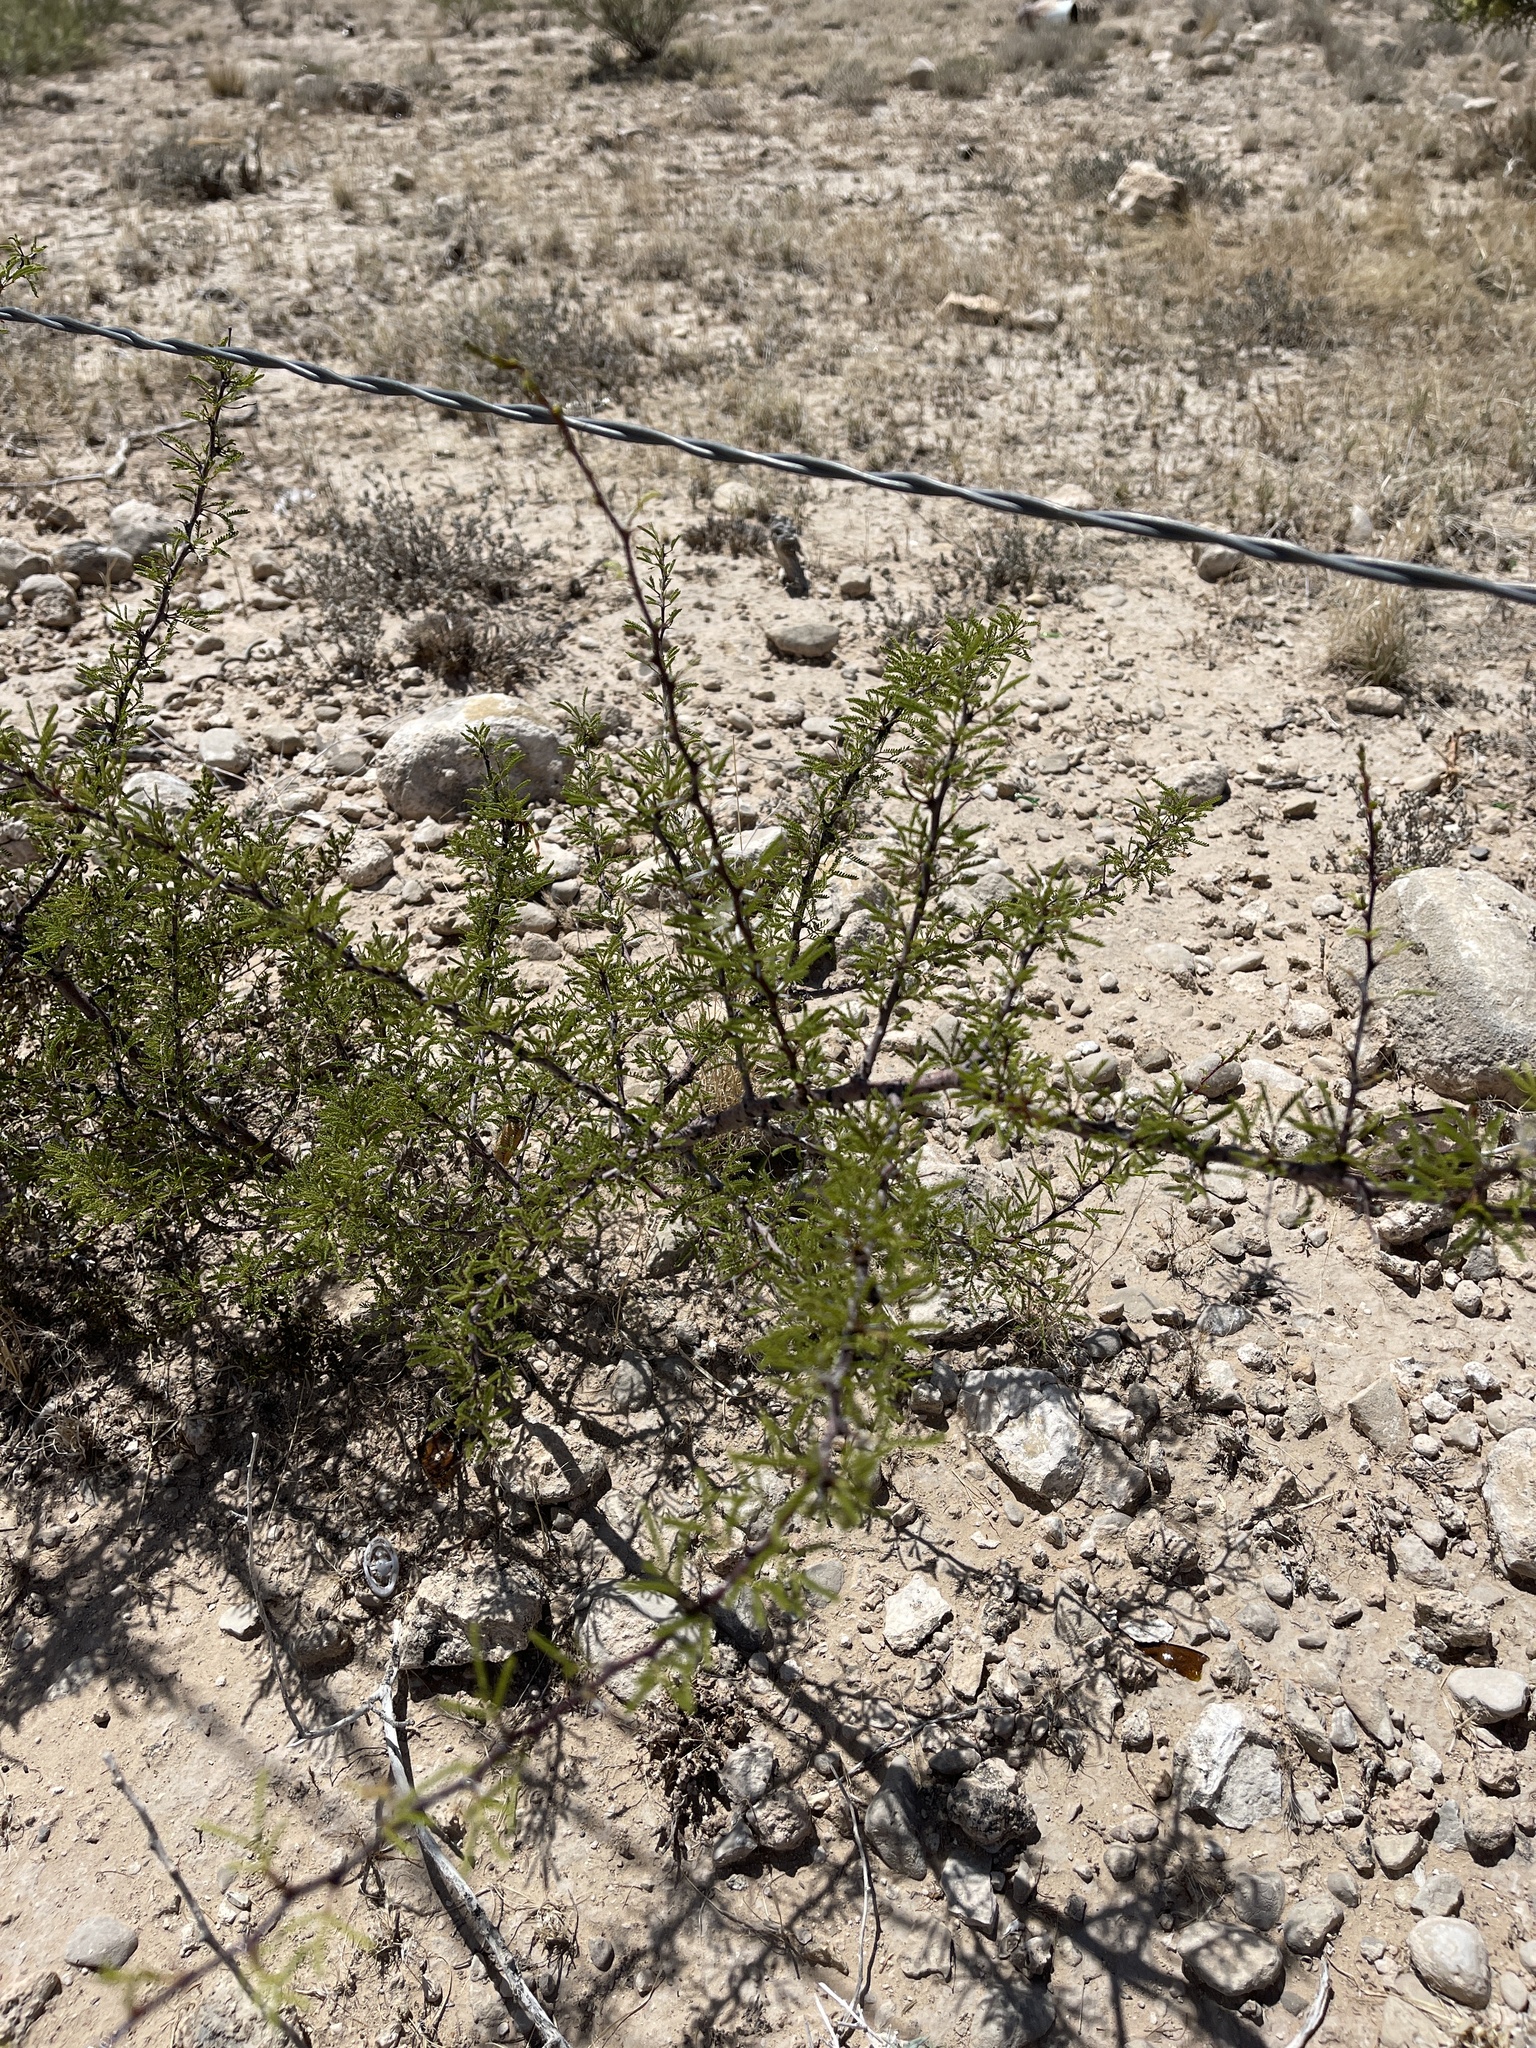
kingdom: Plantae
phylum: Tracheophyta
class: Magnoliopsida
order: Fabales
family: Fabaceae
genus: Vachellia
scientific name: Vachellia vernicosa
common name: Viscid acacia
